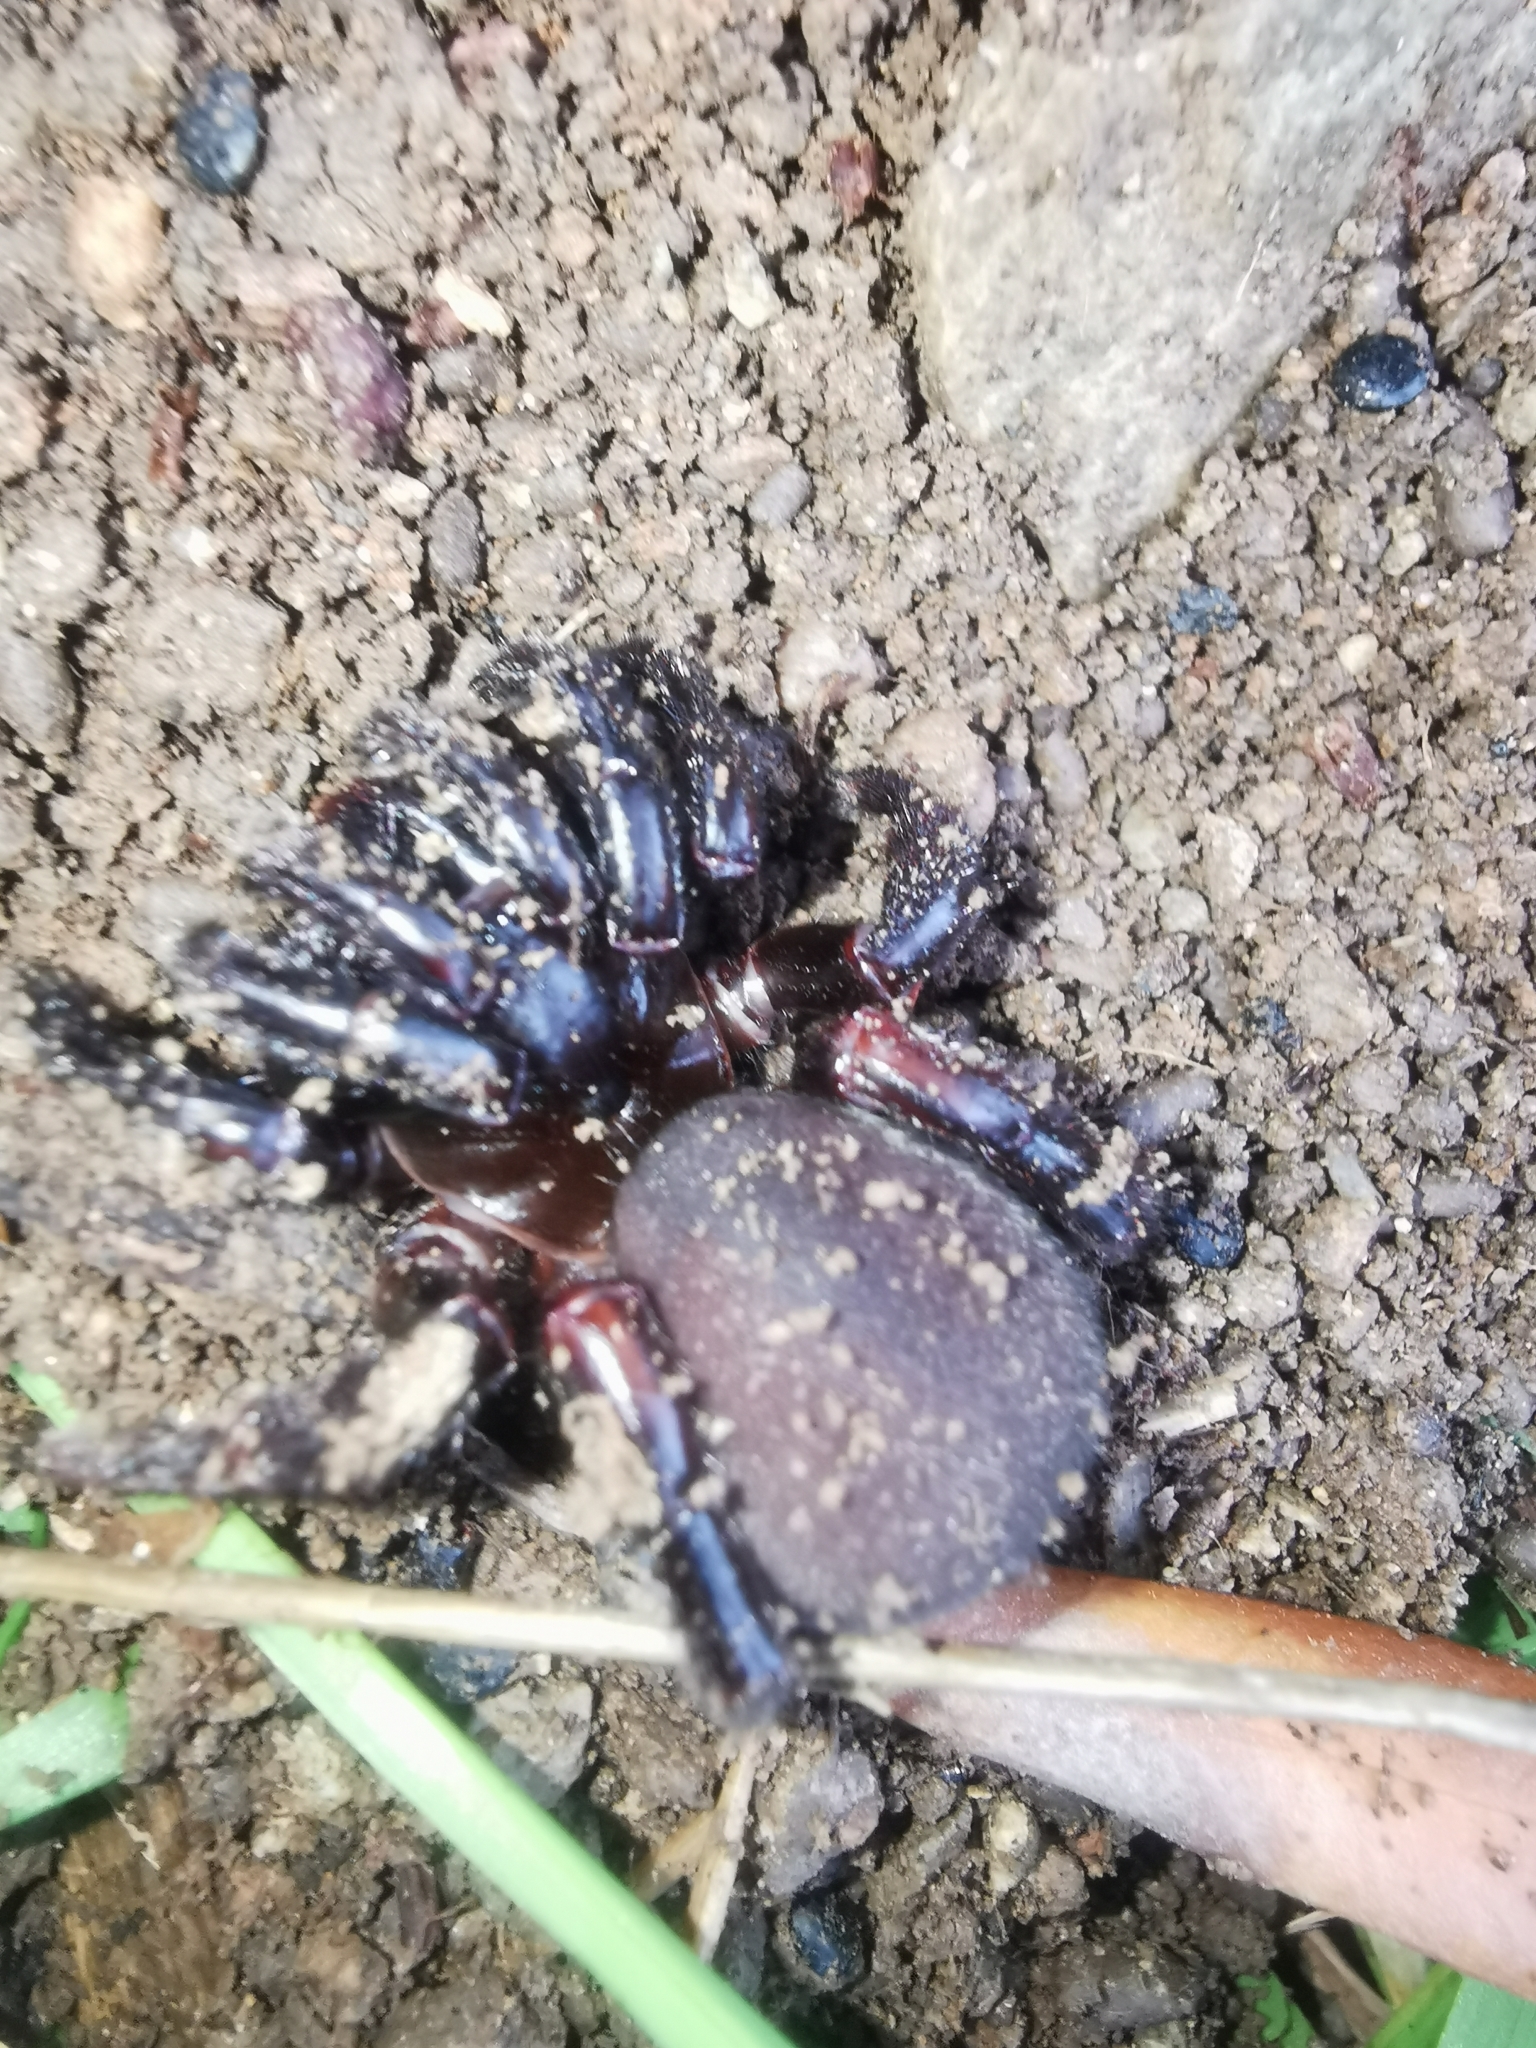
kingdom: Animalia
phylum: Arthropoda
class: Arachnida
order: Araneae
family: Ctenizidae
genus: Cyrtocarenum
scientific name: Cyrtocarenum grajum
